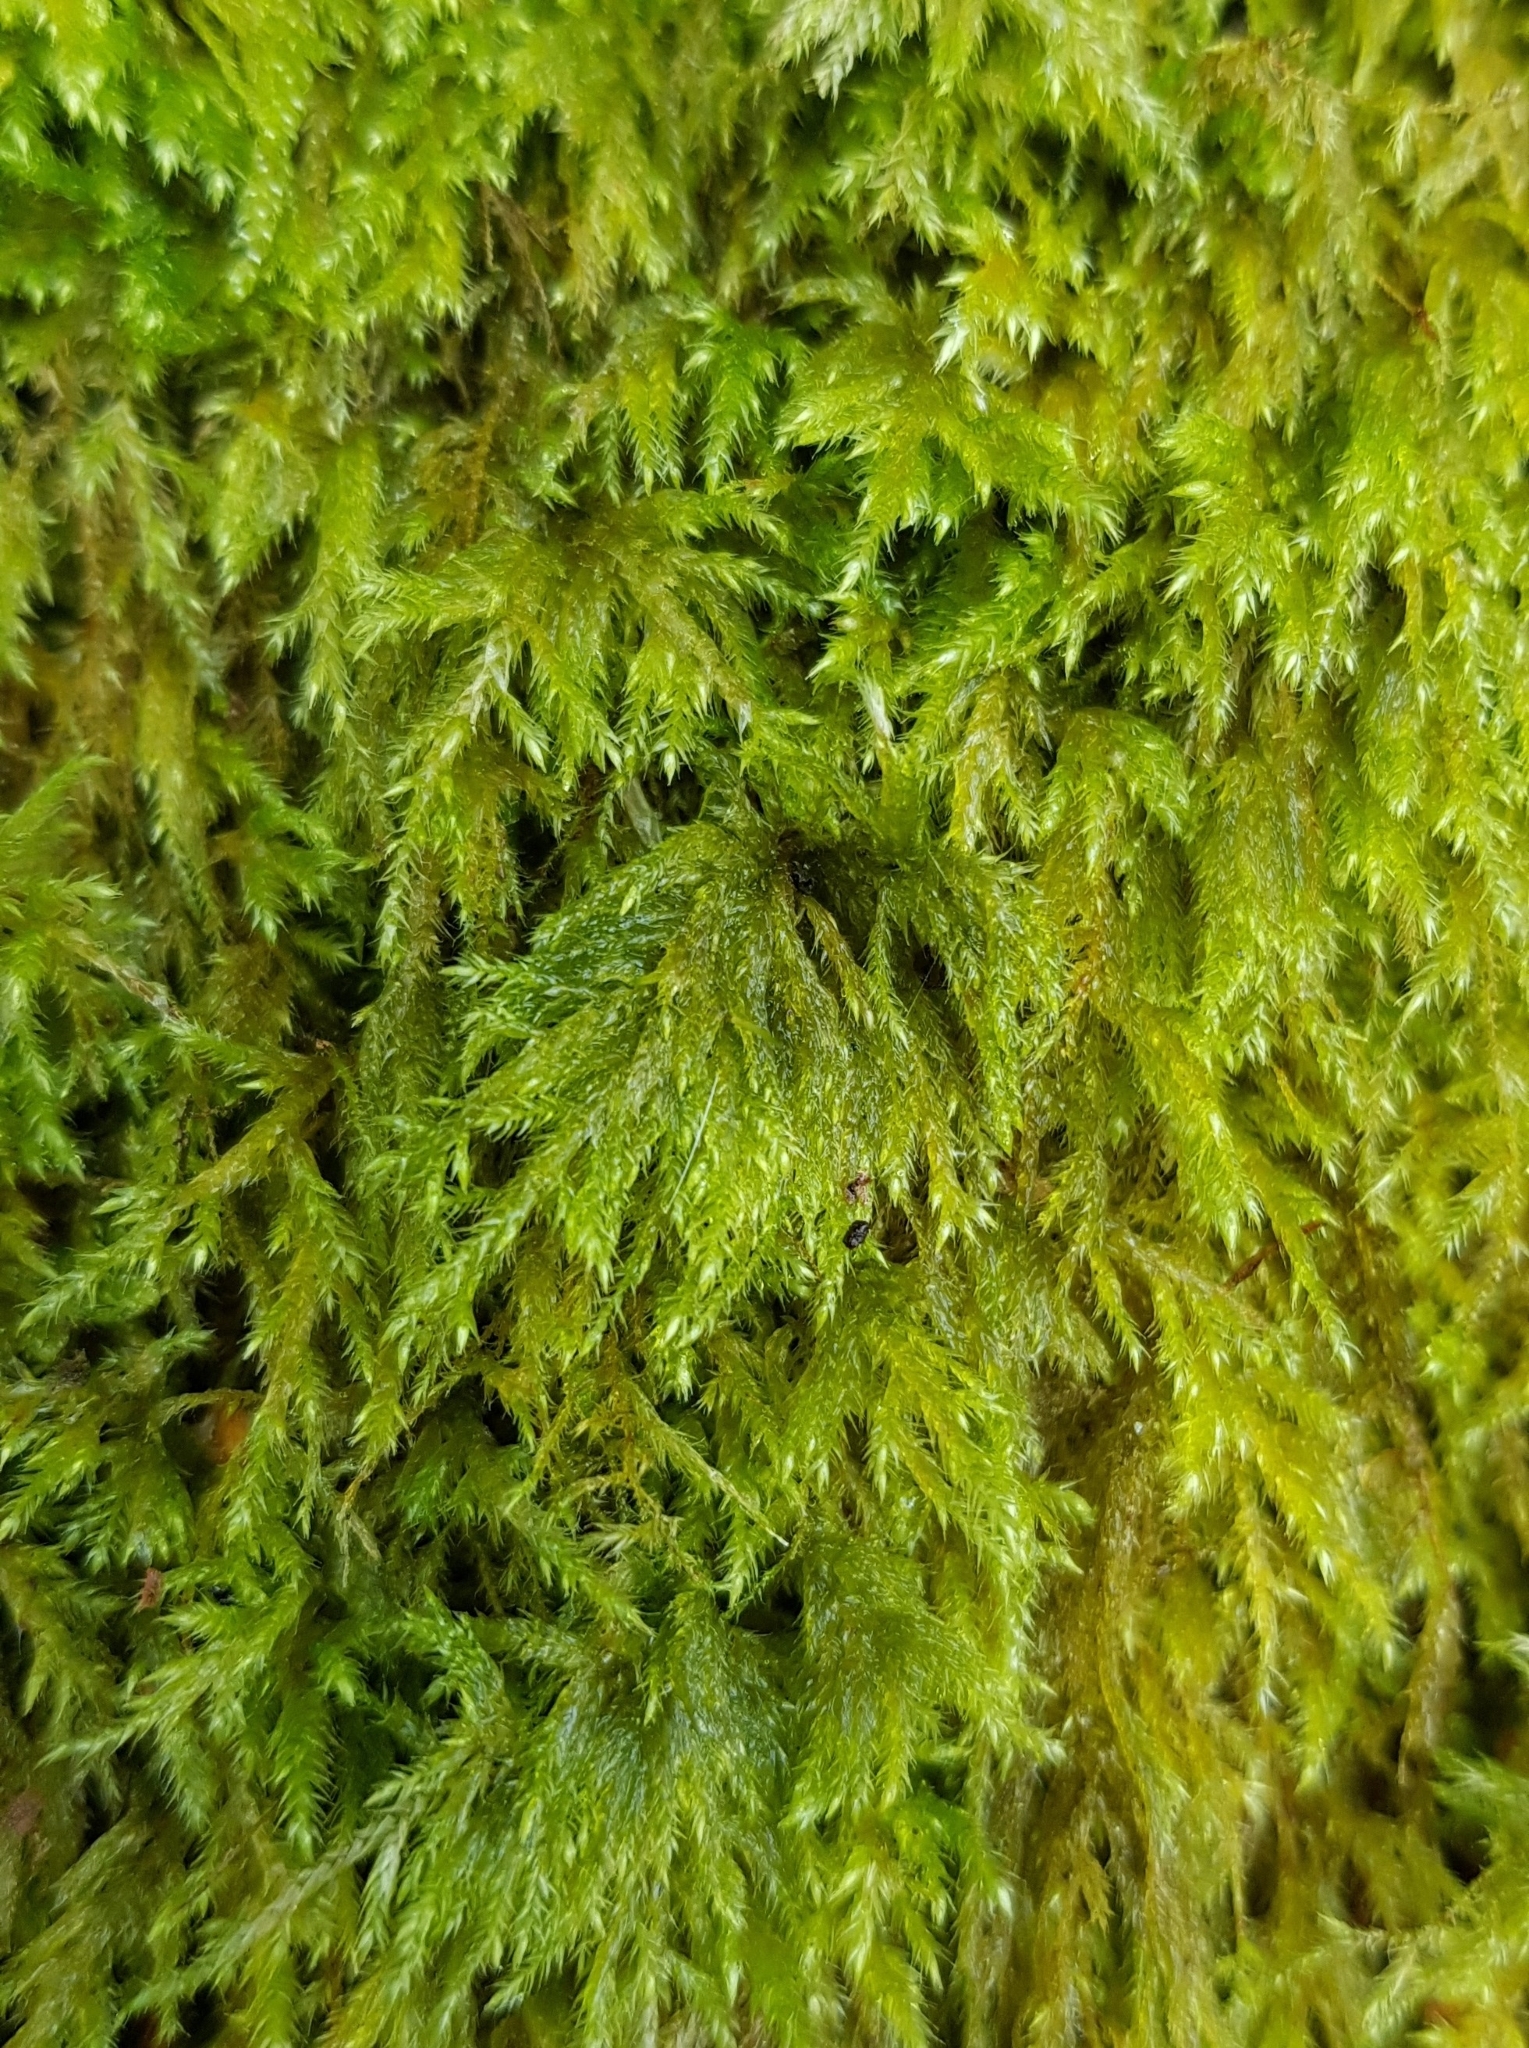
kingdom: Plantae
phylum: Bryophyta
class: Bryopsida
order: Hypnales
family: Lembophyllaceae
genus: Pseudisothecium
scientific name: Pseudisothecium myosuroides
